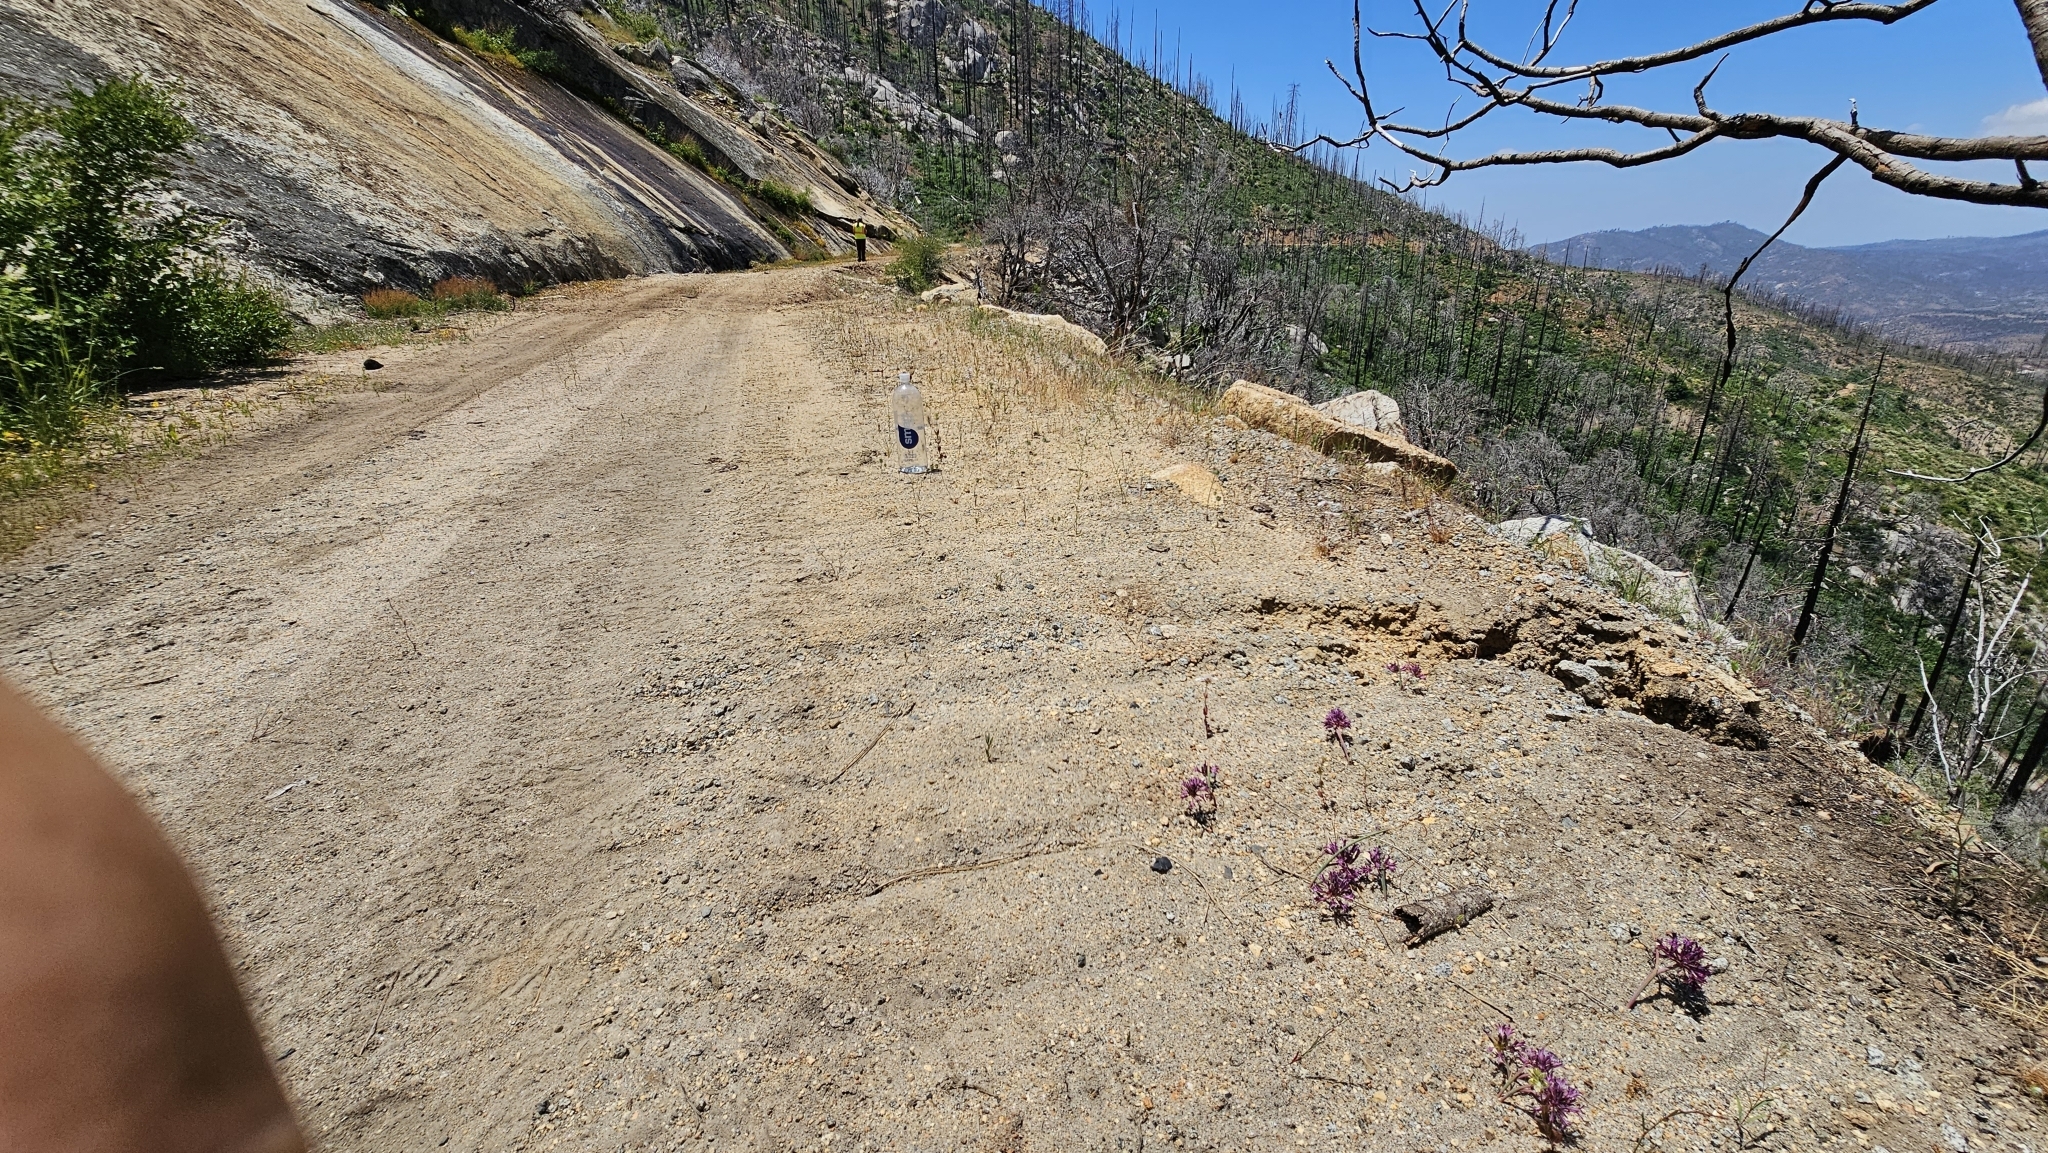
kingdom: Plantae
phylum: Tracheophyta
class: Liliopsida
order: Asparagales
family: Amaryllidaceae
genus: Allium
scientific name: Allium abramsii
